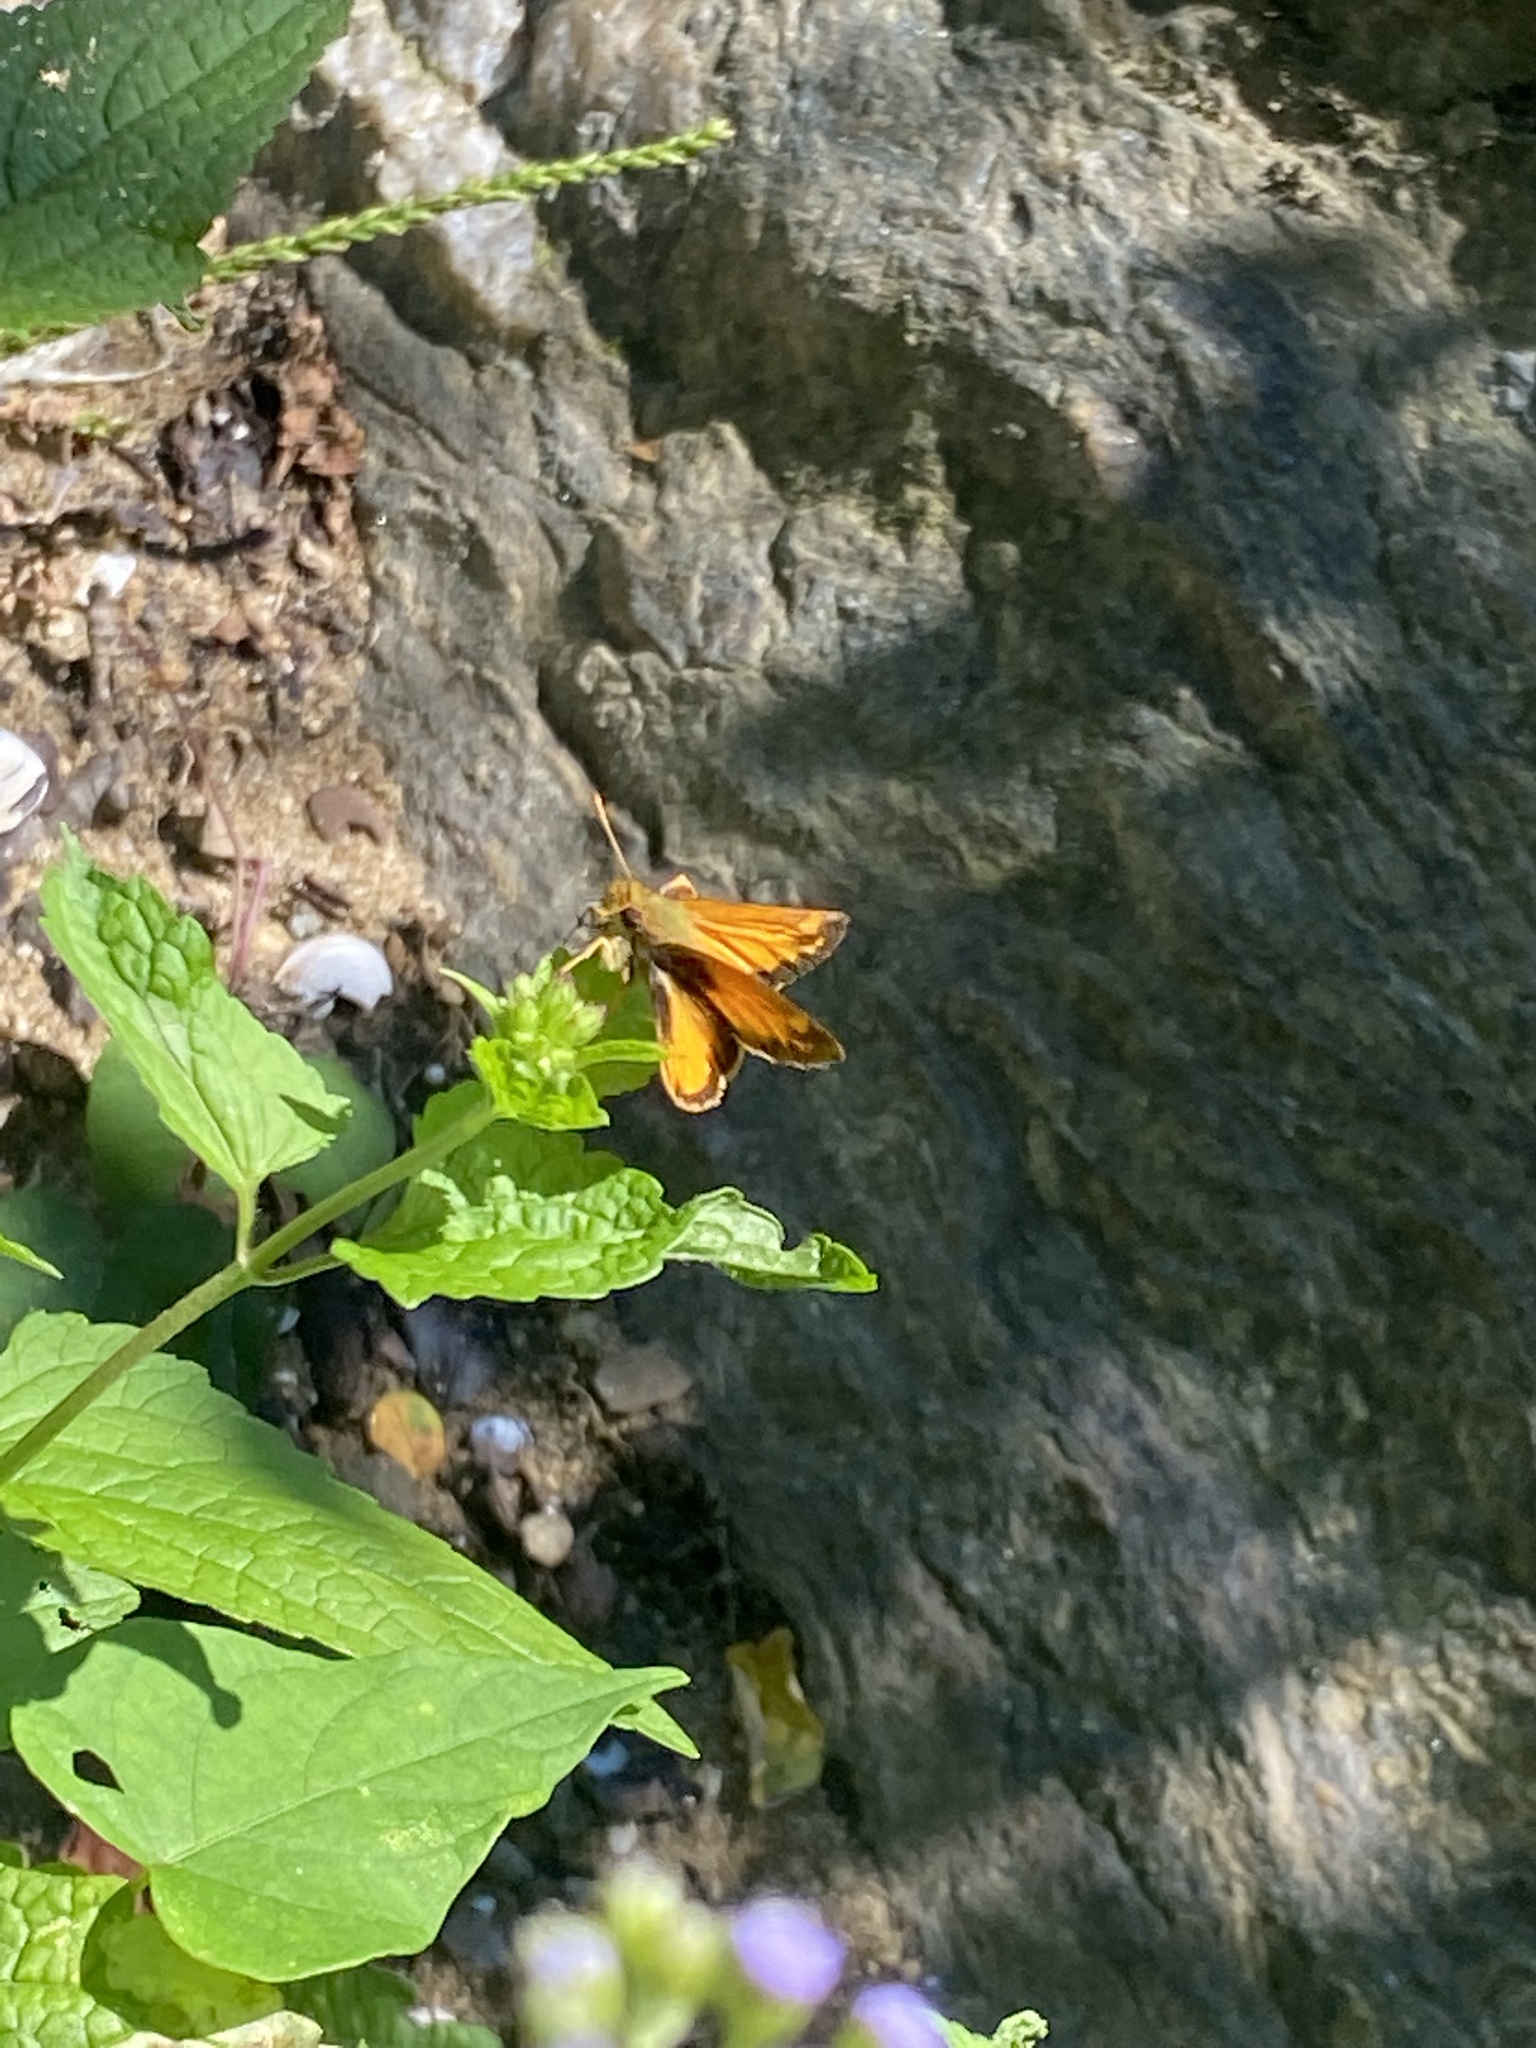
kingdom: Animalia
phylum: Arthropoda
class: Insecta
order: Lepidoptera
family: Hesperiidae
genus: Lon
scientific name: Lon zabulon
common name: Zabulon skipper
